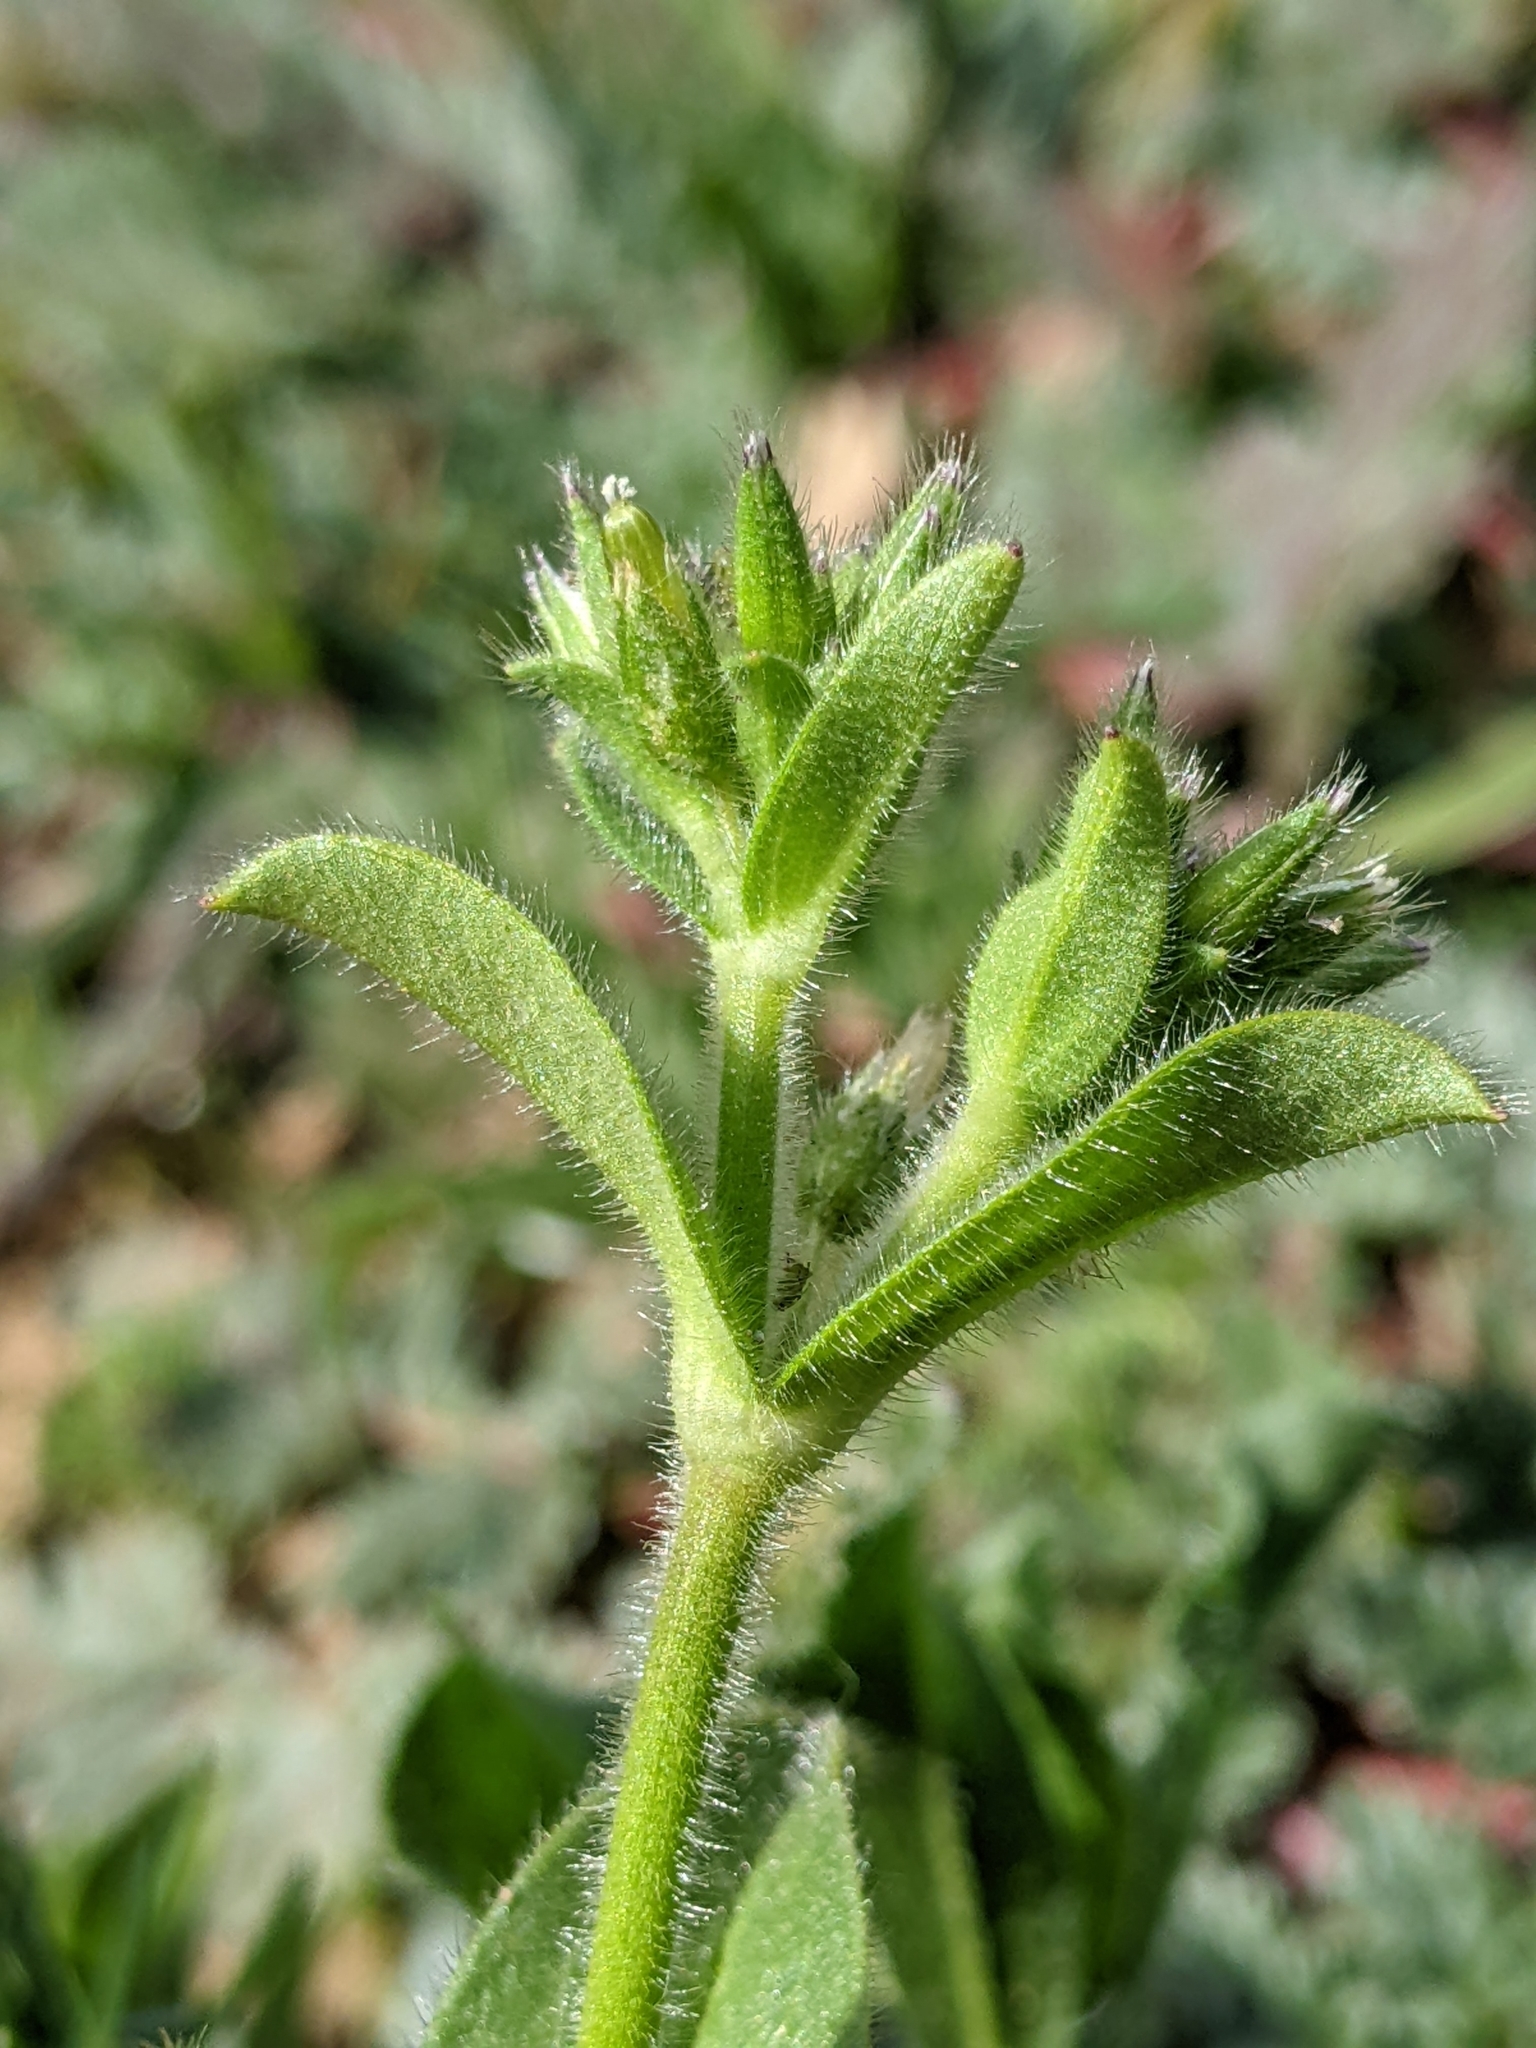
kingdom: Plantae
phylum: Tracheophyta
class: Magnoliopsida
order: Caryophyllales
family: Caryophyllaceae
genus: Cerastium
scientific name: Cerastium glomeratum
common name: Sticky chickweed
